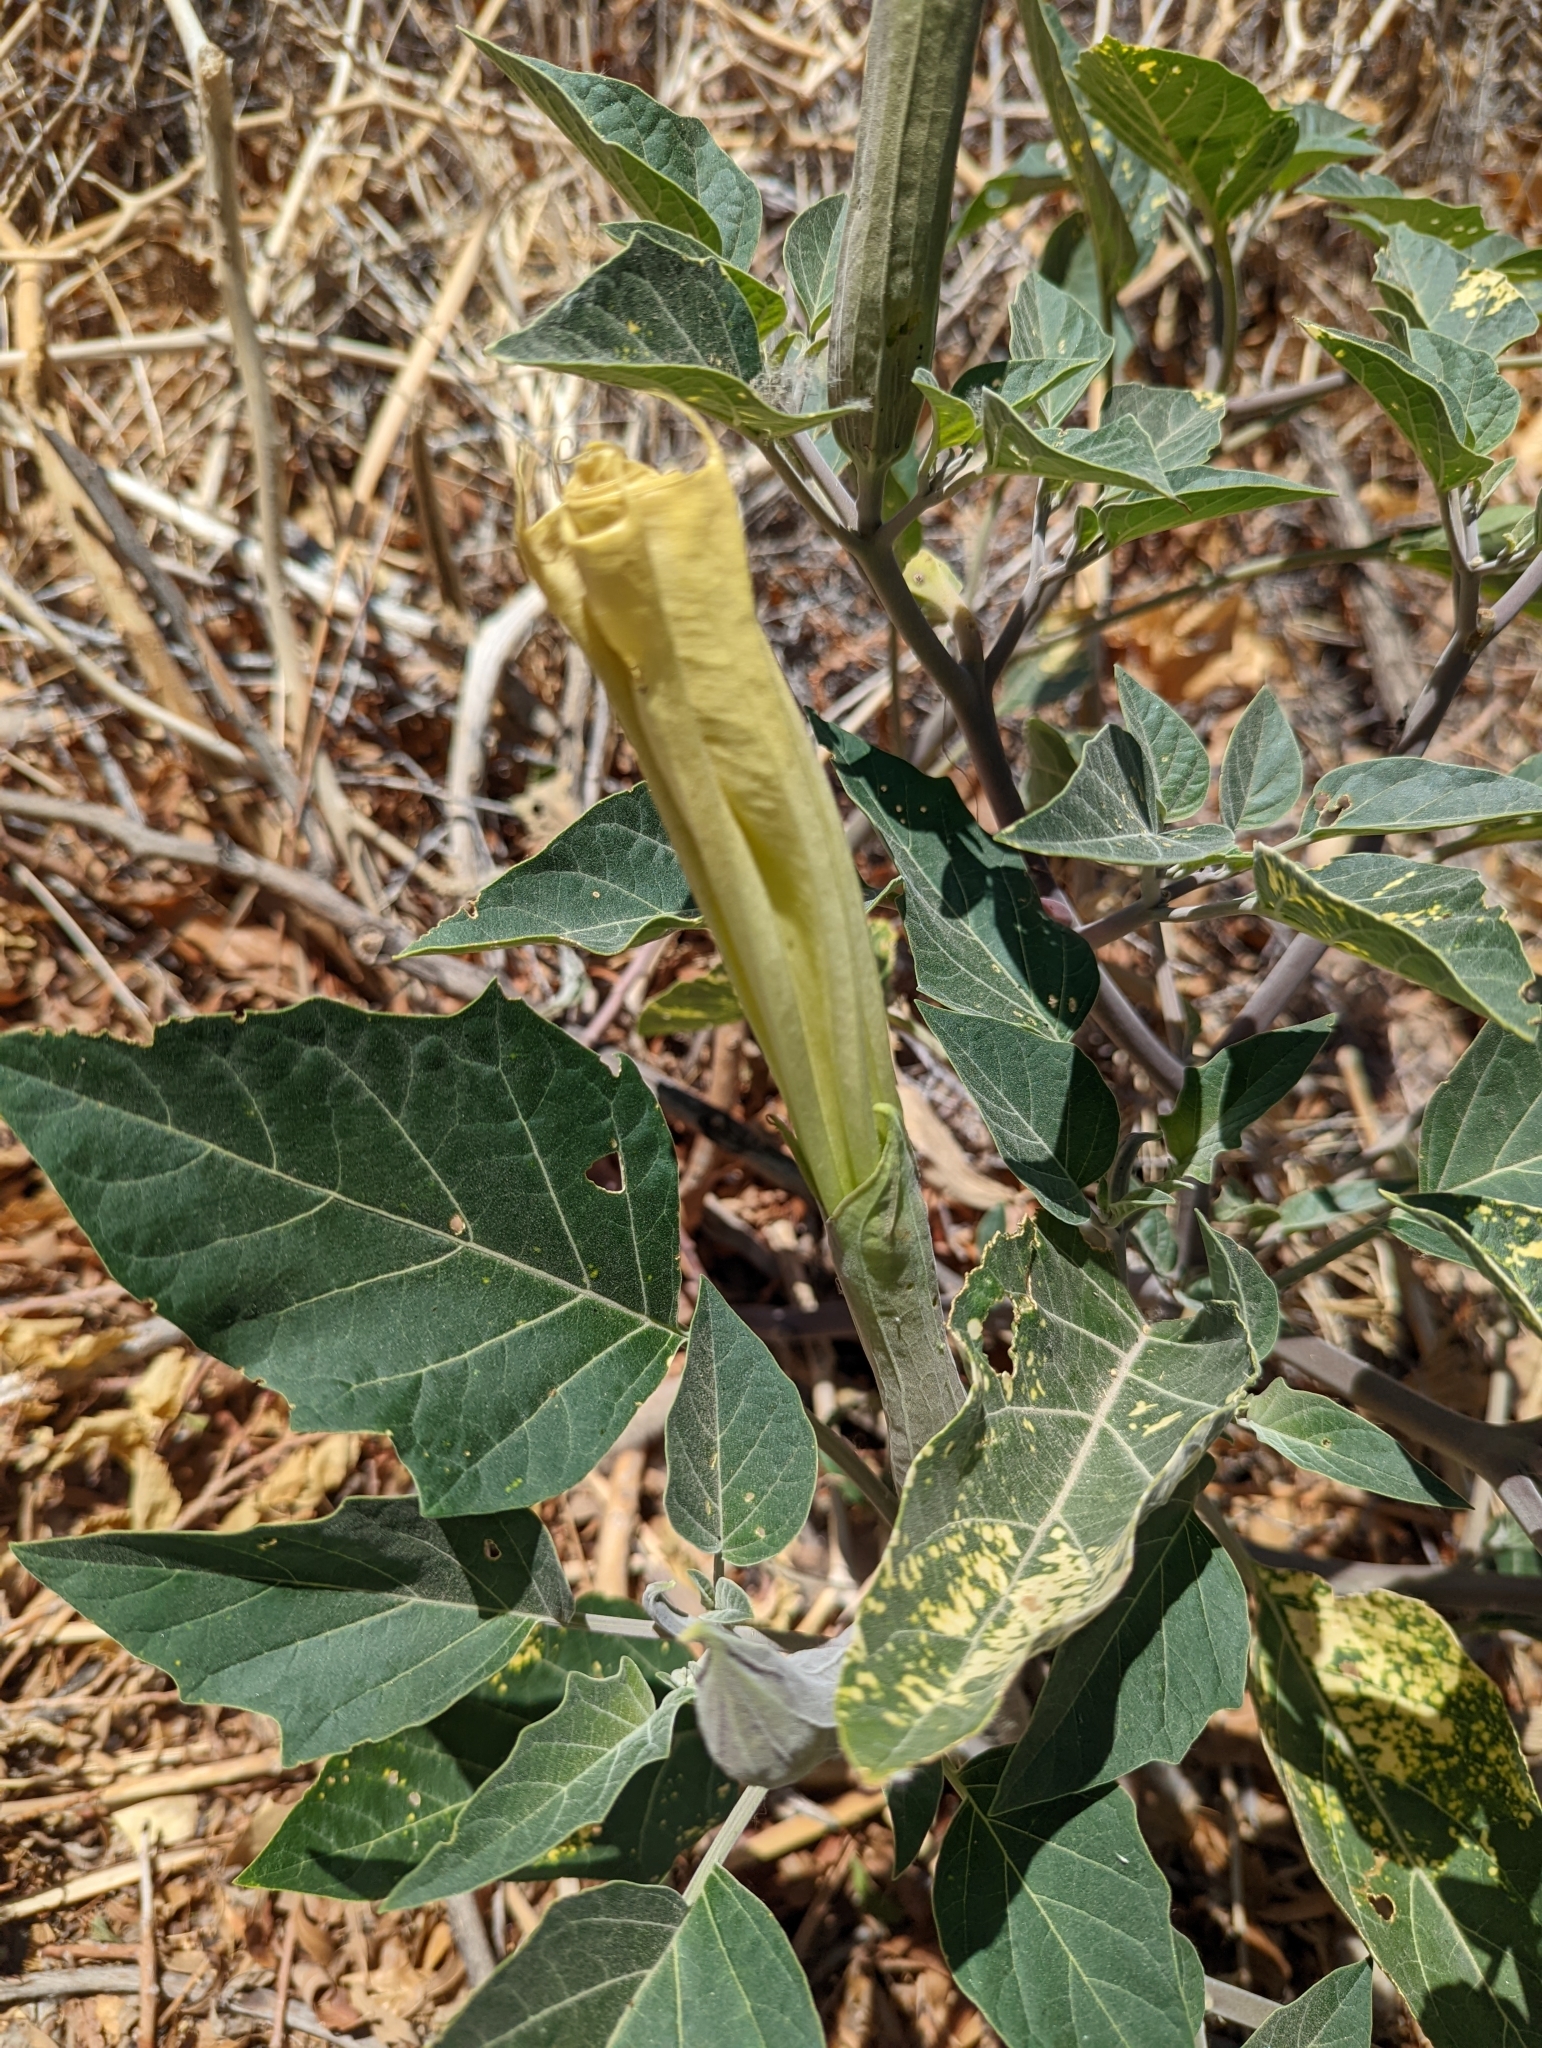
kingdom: Plantae
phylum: Tracheophyta
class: Magnoliopsida
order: Solanales
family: Solanaceae
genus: Datura
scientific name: Datura wrightii
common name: Sacred thorn-apple
